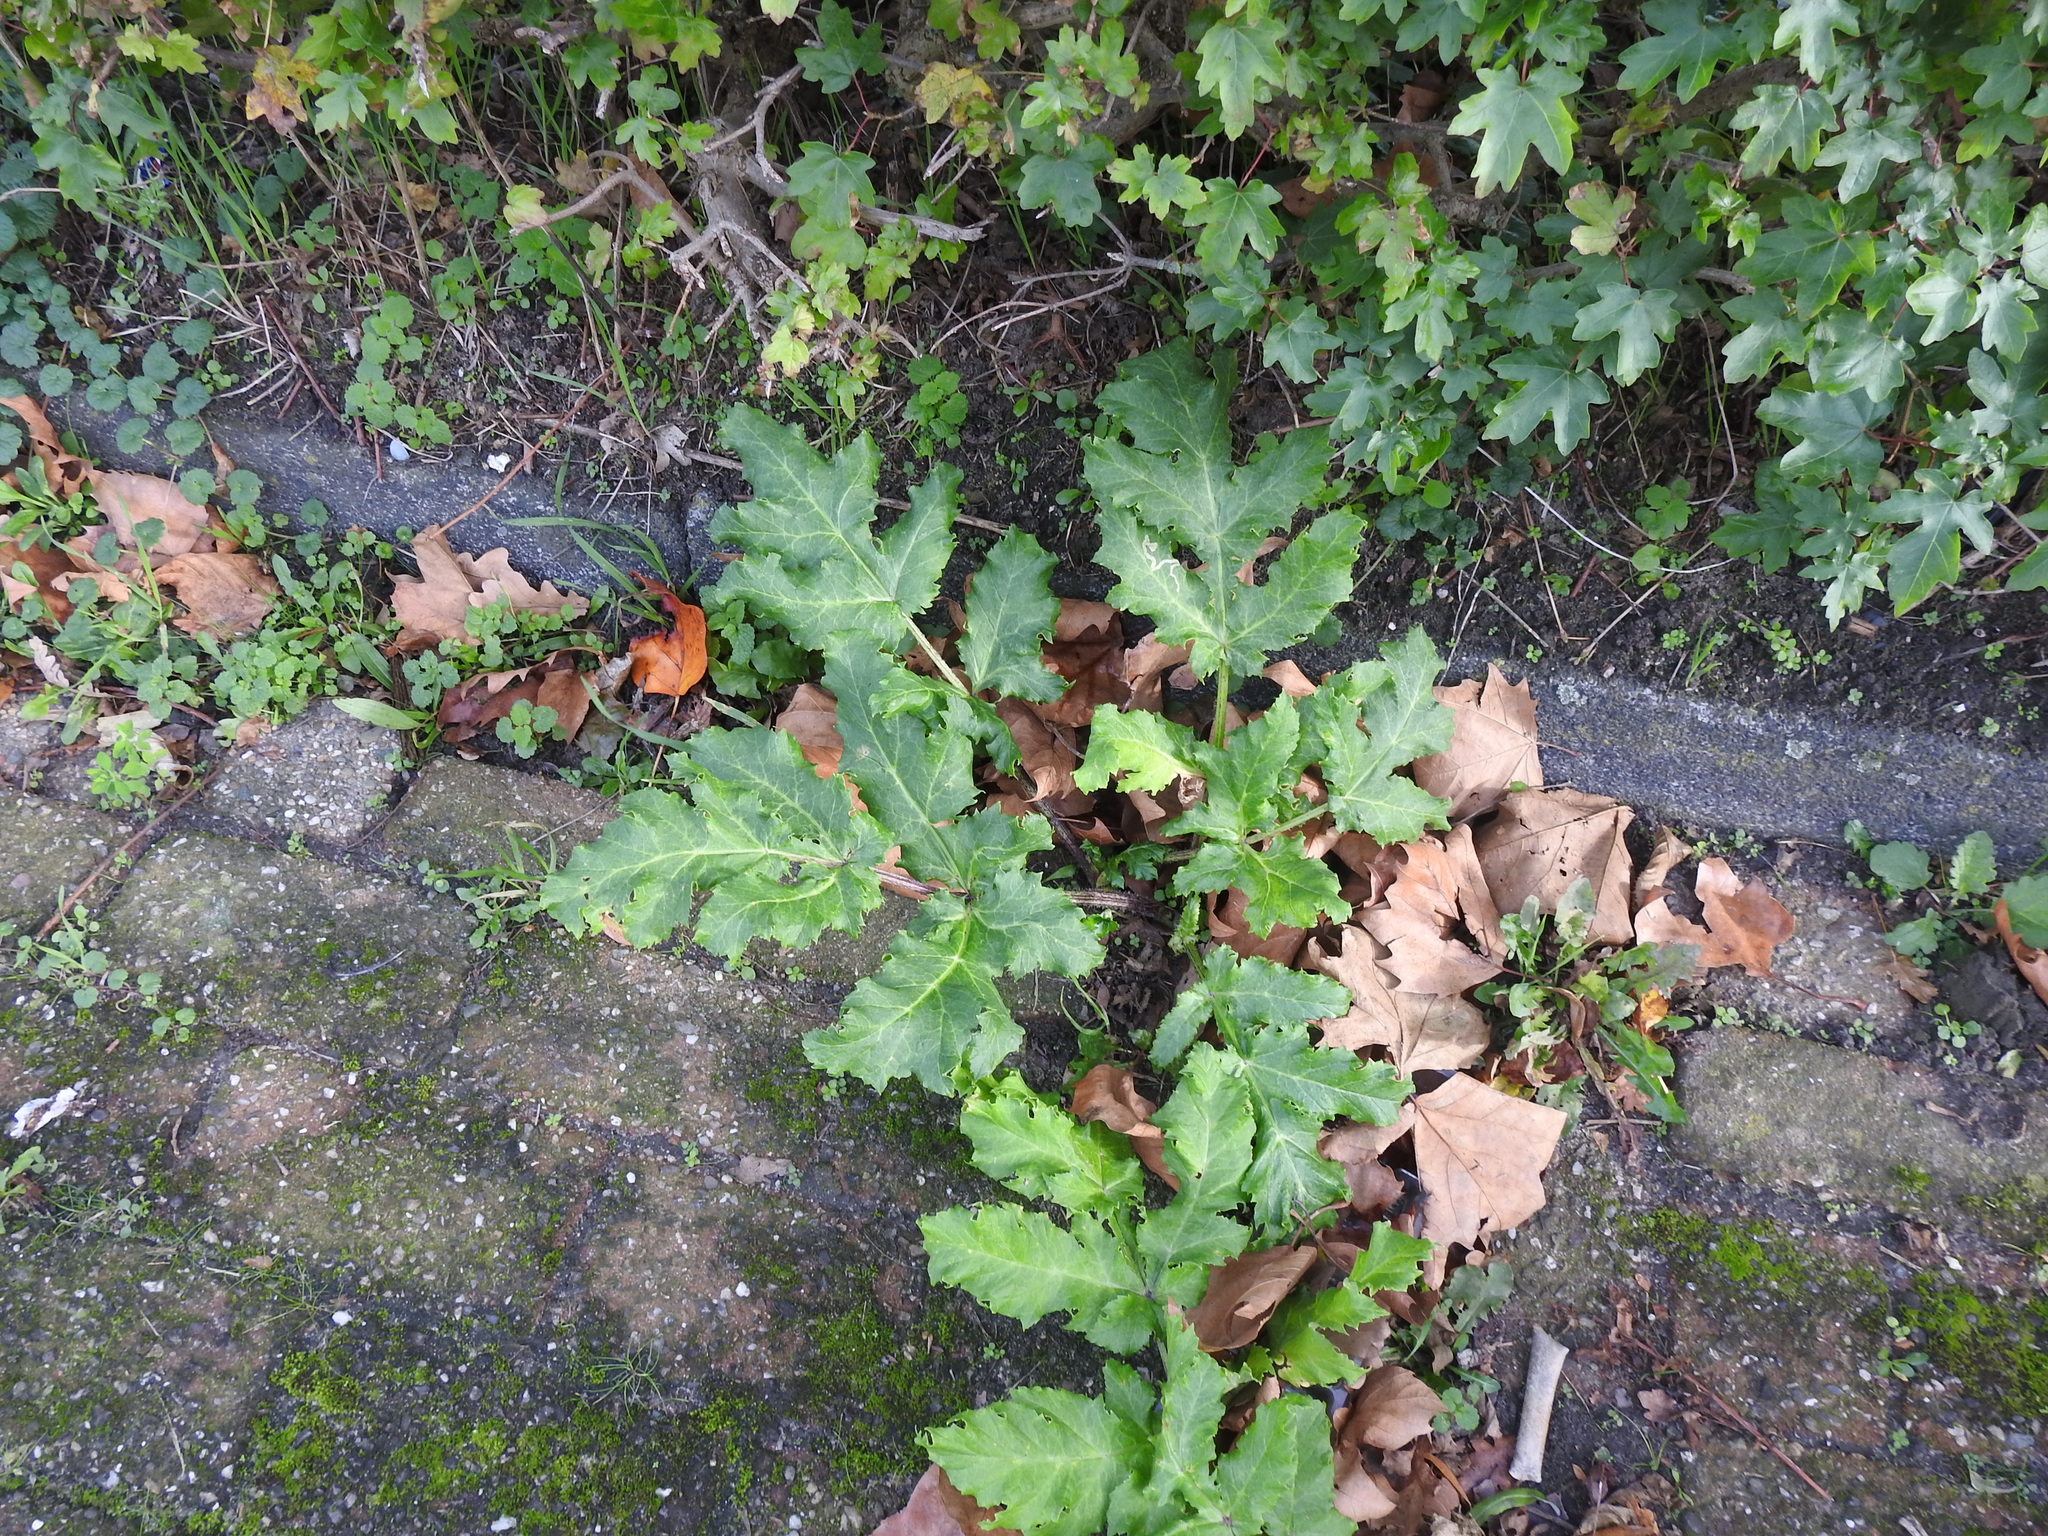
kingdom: Plantae
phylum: Tracheophyta
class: Magnoliopsida
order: Apiales
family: Apiaceae
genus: Heracleum
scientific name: Heracleum mantegazzianum
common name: Giant hogweed
